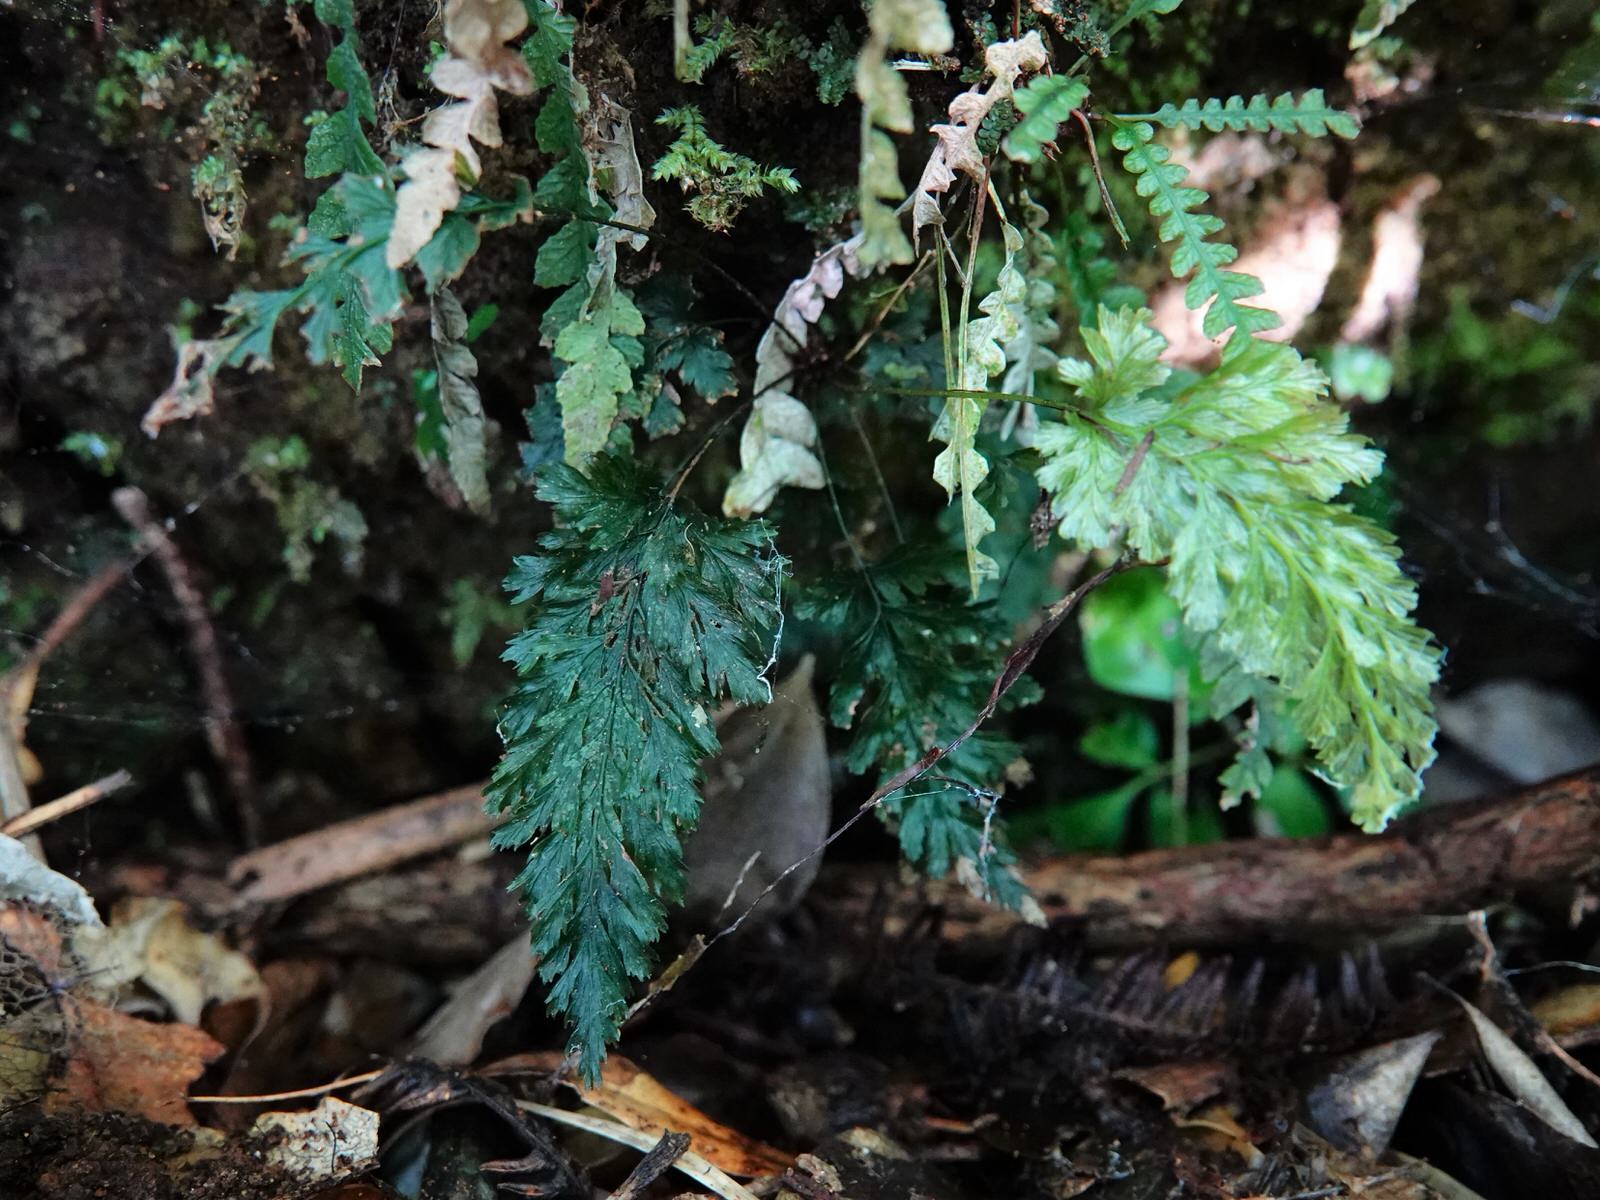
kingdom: Plantae
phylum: Tracheophyta
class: Polypodiopsida
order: Hymenophyllales
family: Hymenophyllaceae
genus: Abrodictyum
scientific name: Abrodictyum elongatum
